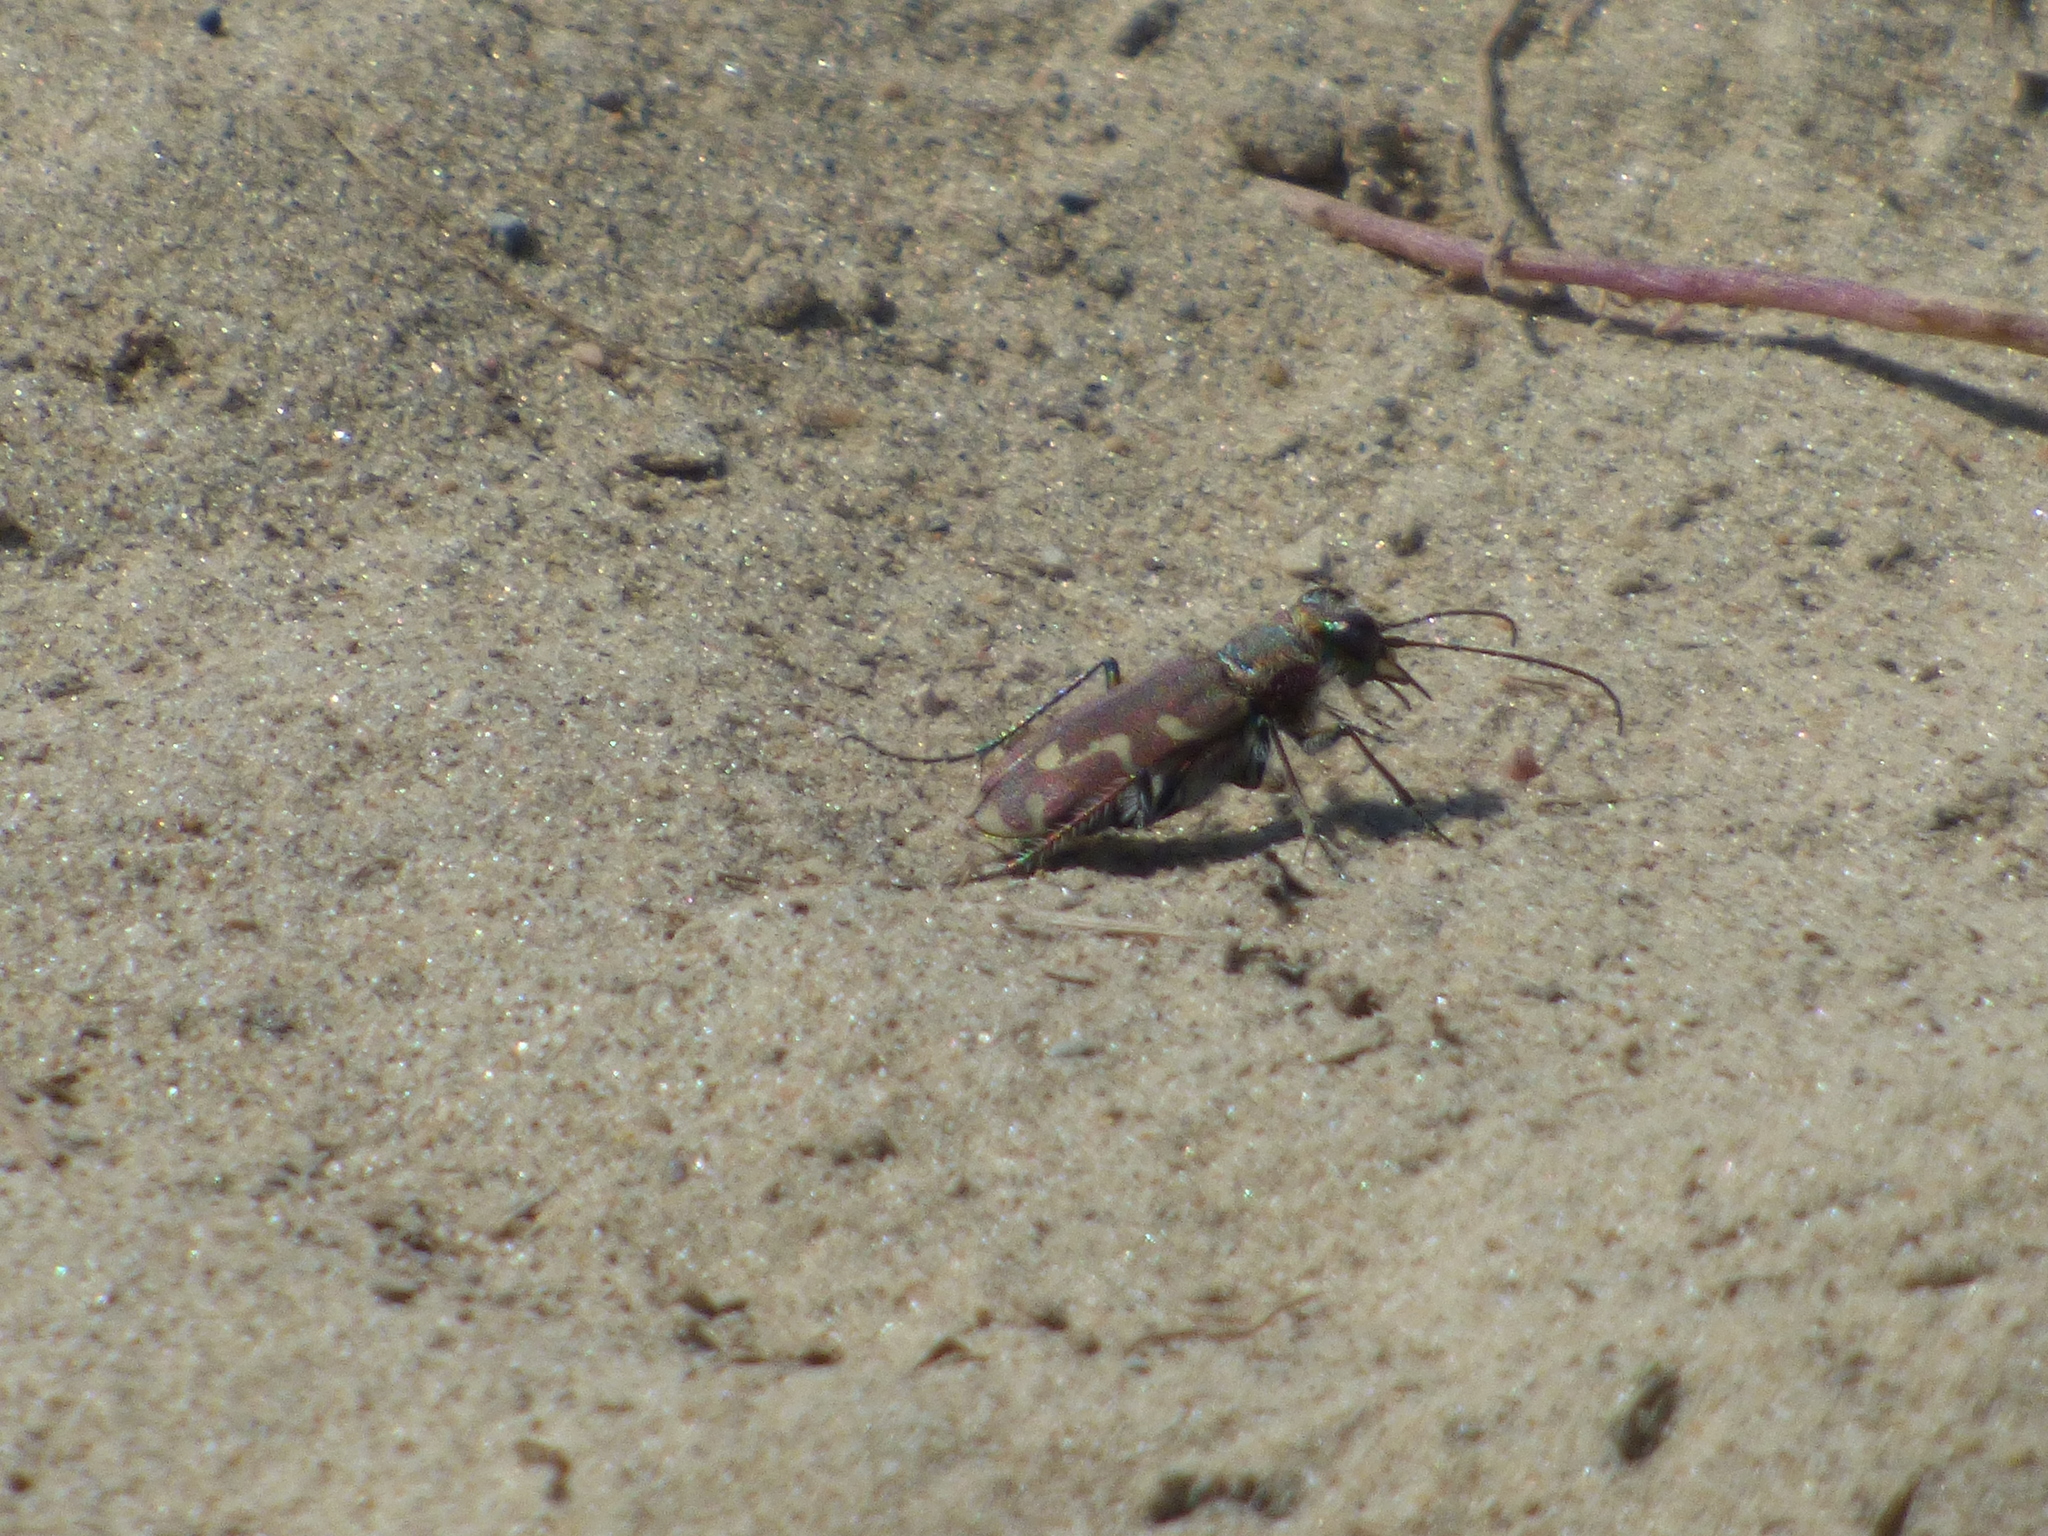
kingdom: Animalia
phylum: Arthropoda
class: Insecta
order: Coleoptera
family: Carabidae
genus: Cicindela
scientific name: Cicindela repanda
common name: Bronzed tiger beetle
